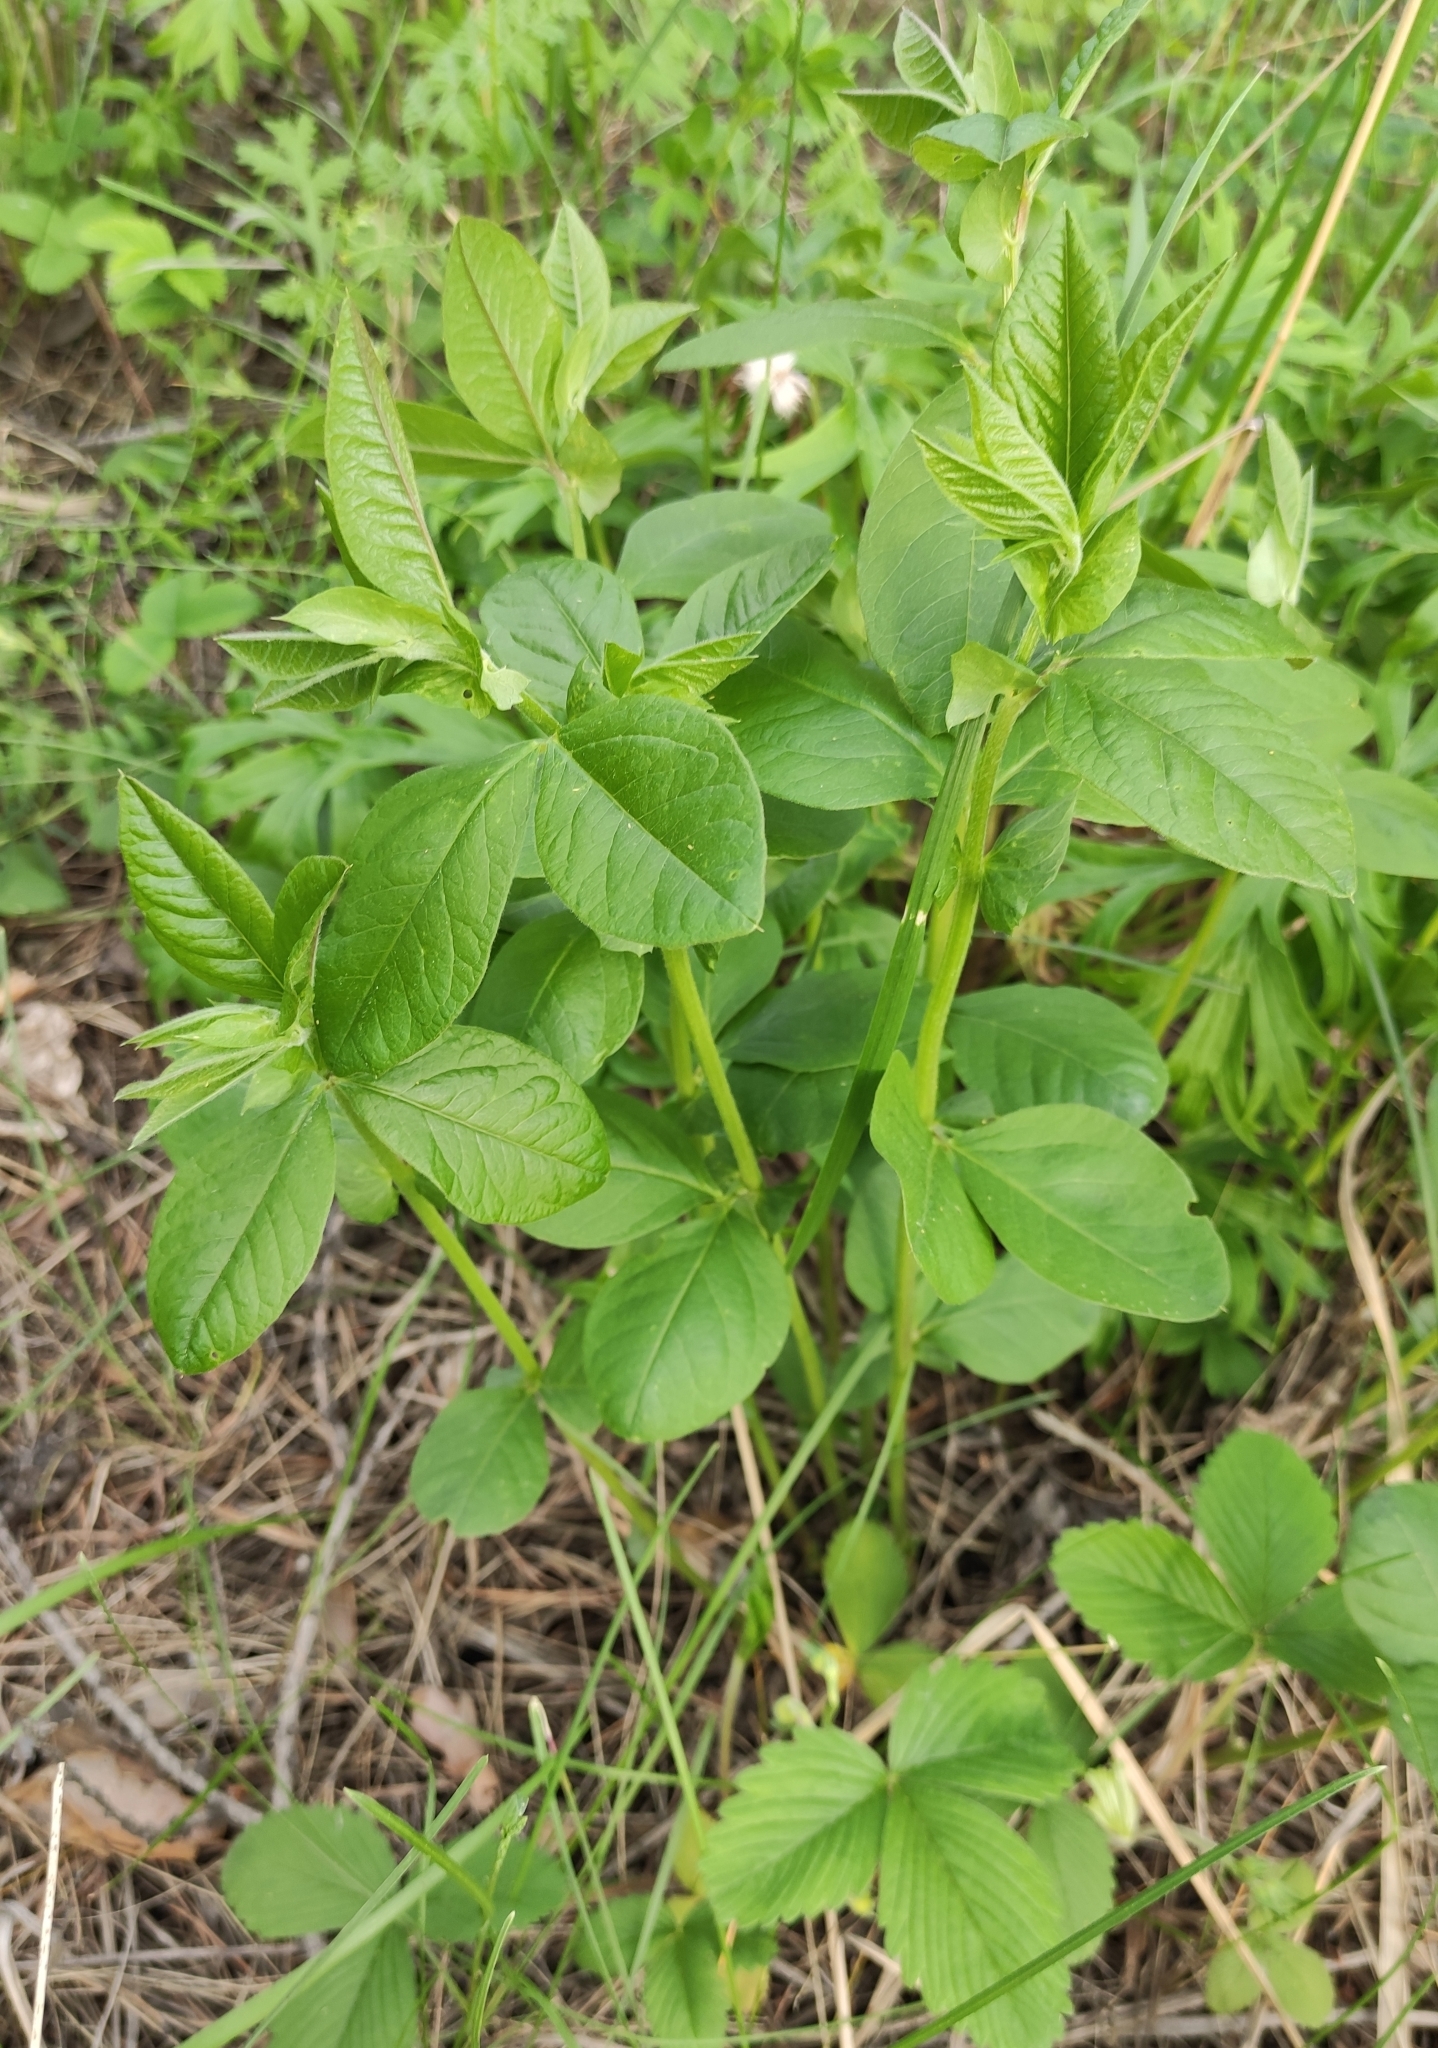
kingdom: Plantae
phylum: Tracheophyta
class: Magnoliopsida
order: Fabales
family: Fabaceae
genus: Vicia
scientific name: Vicia unijuga
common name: Two-leaf vetch
